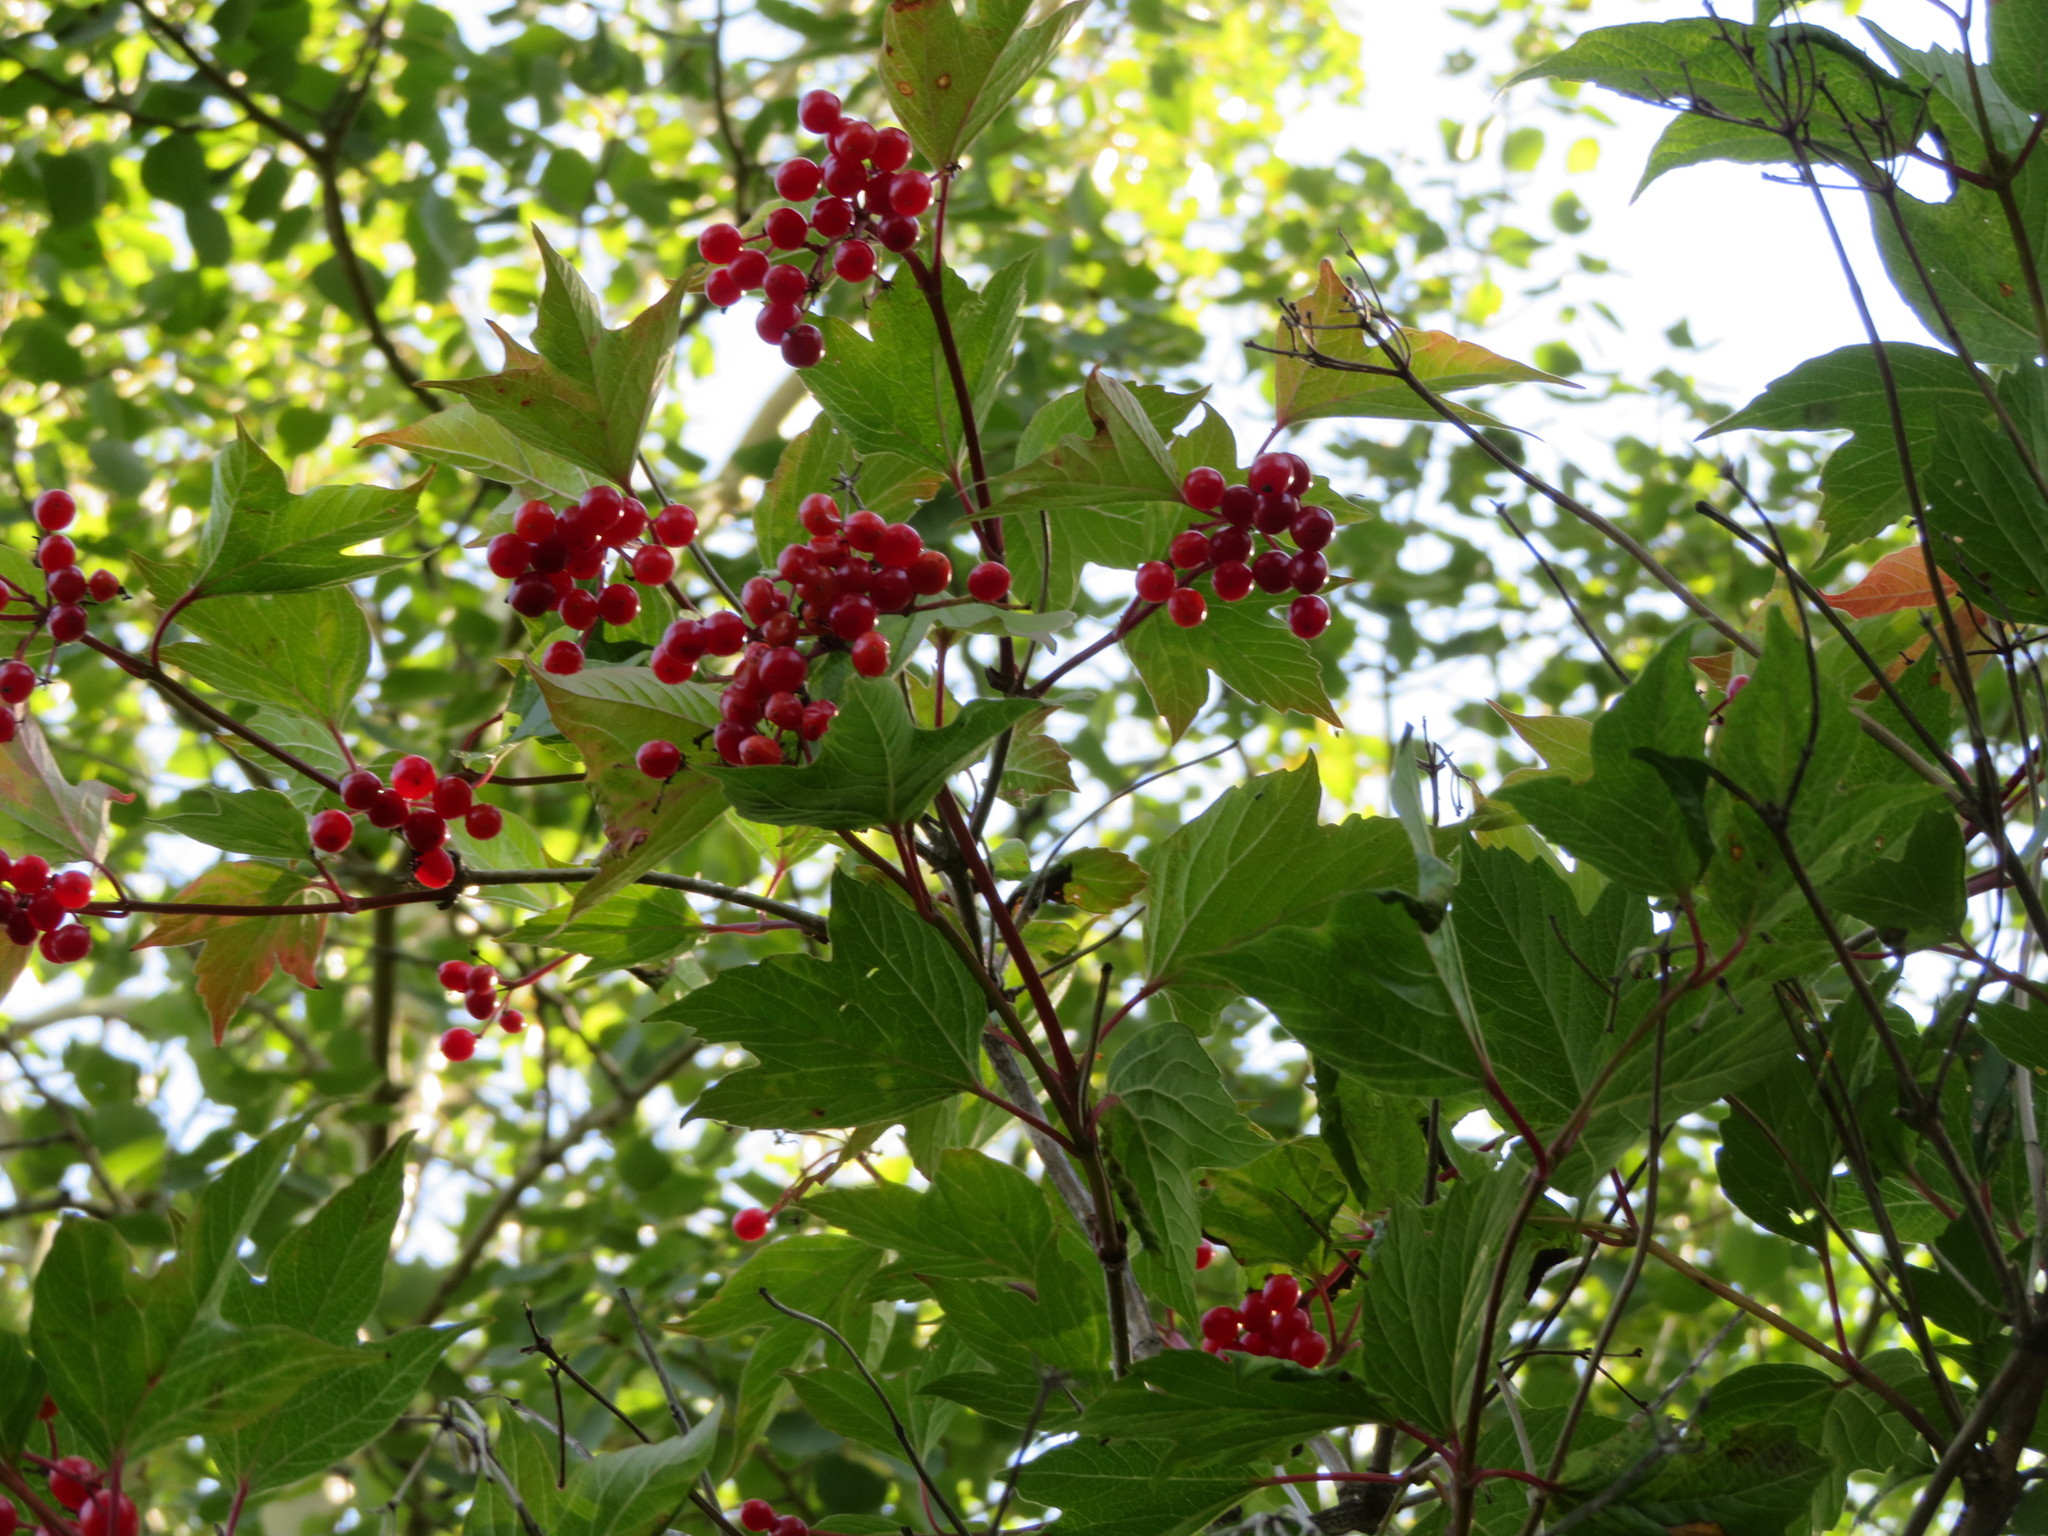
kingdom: Plantae
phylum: Tracheophyta
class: Magnoliopsida
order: Dipsacales
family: Viburnaceae
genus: Viburnum
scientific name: Viburnum trilobum
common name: American cranberrybush
